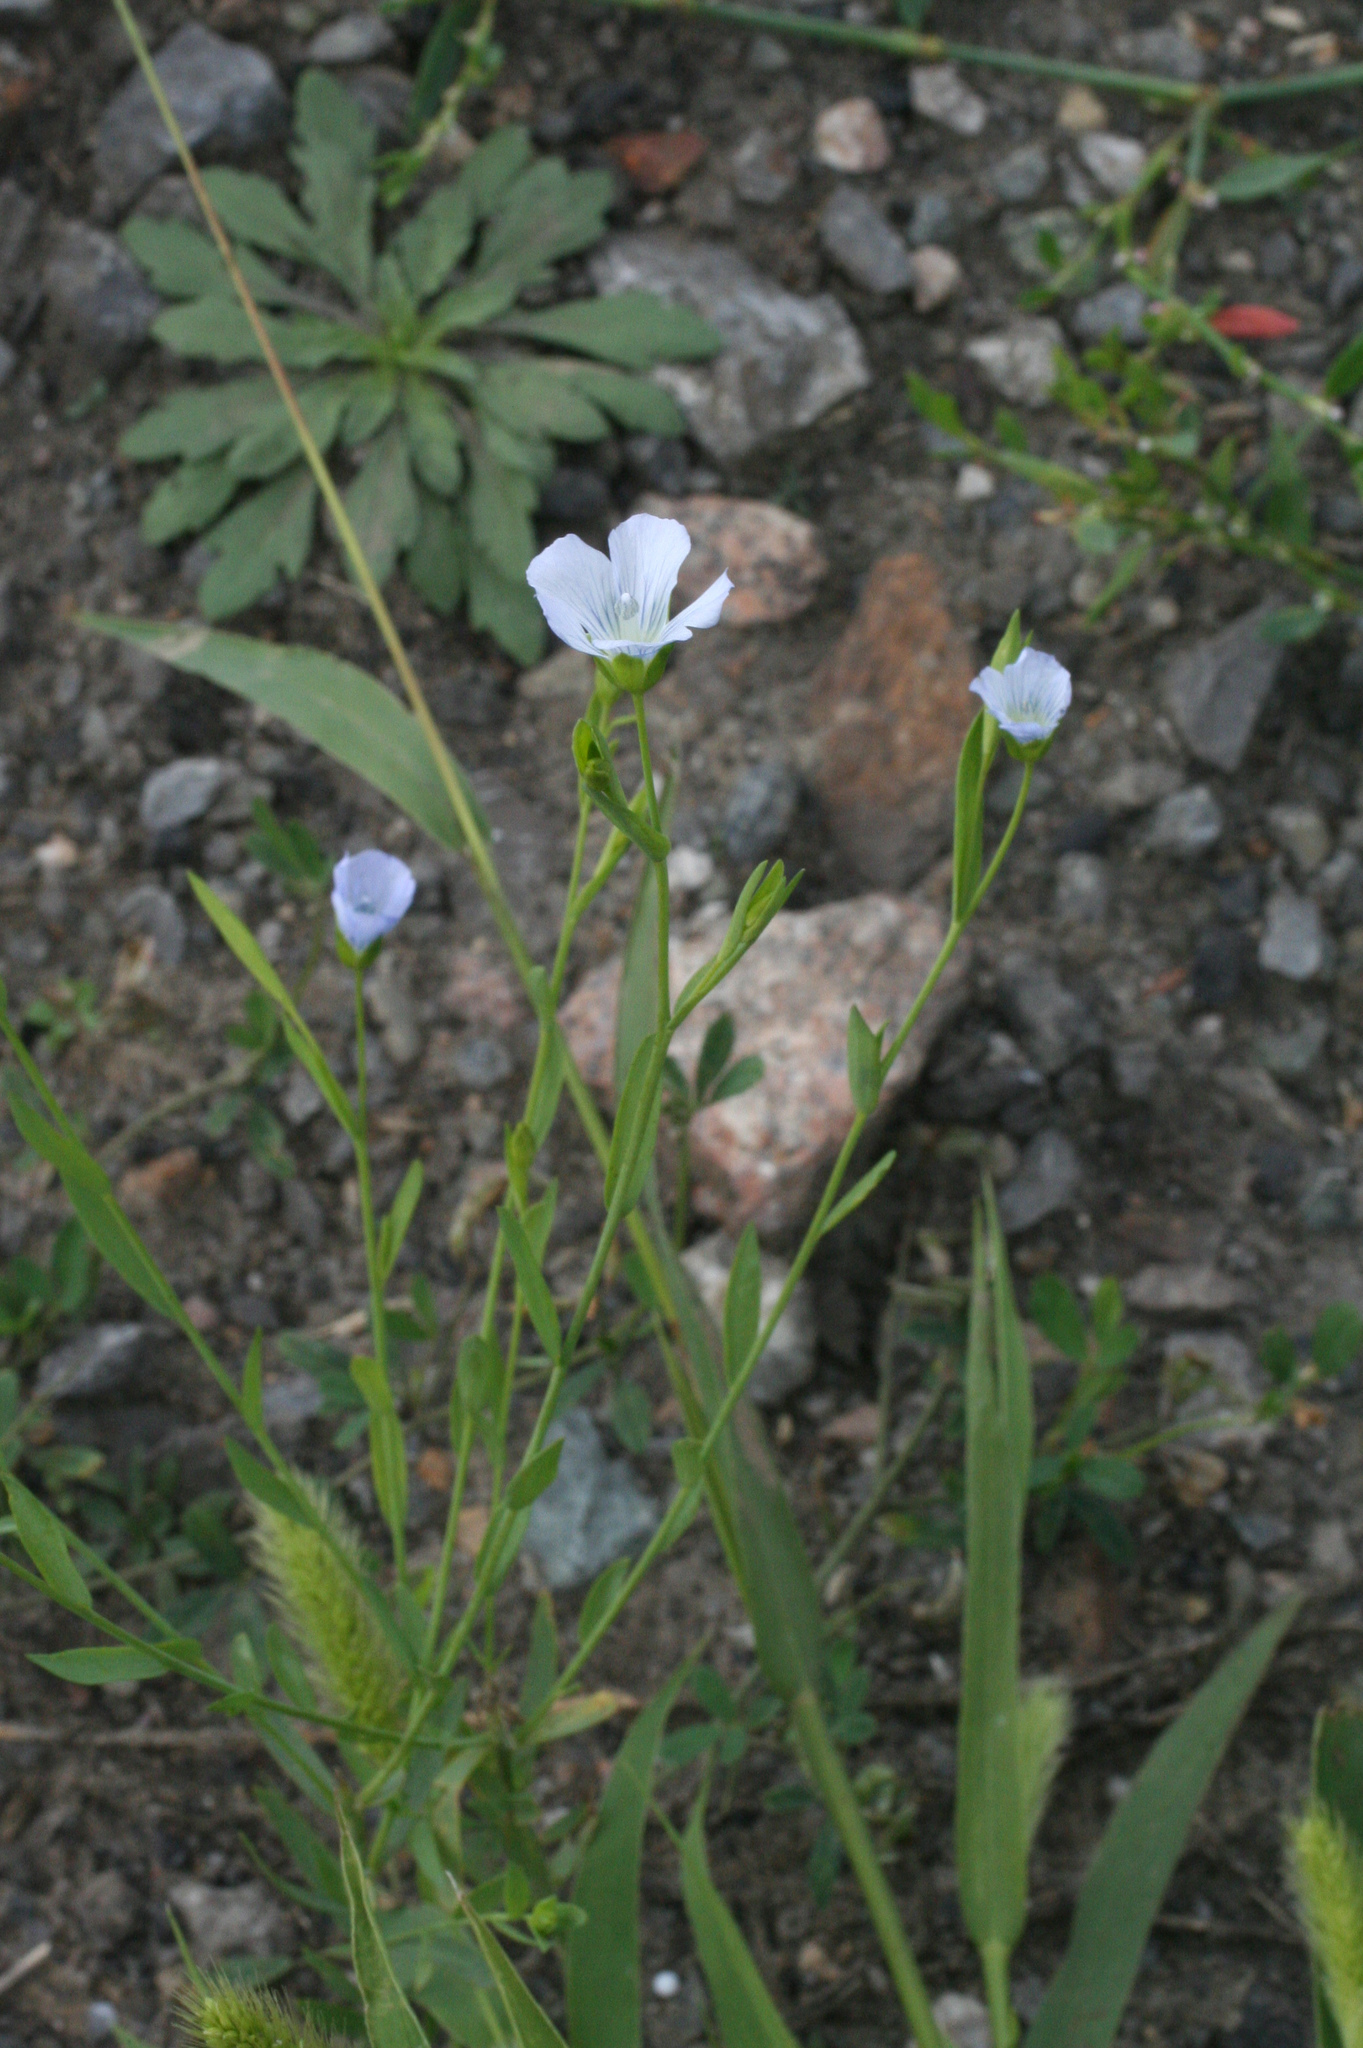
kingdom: Plantae
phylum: Tracheophyta
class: Magnoliopsida
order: Malpighiales
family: Linaceae
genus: Linum
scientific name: Linum usitatissimum
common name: Flax
